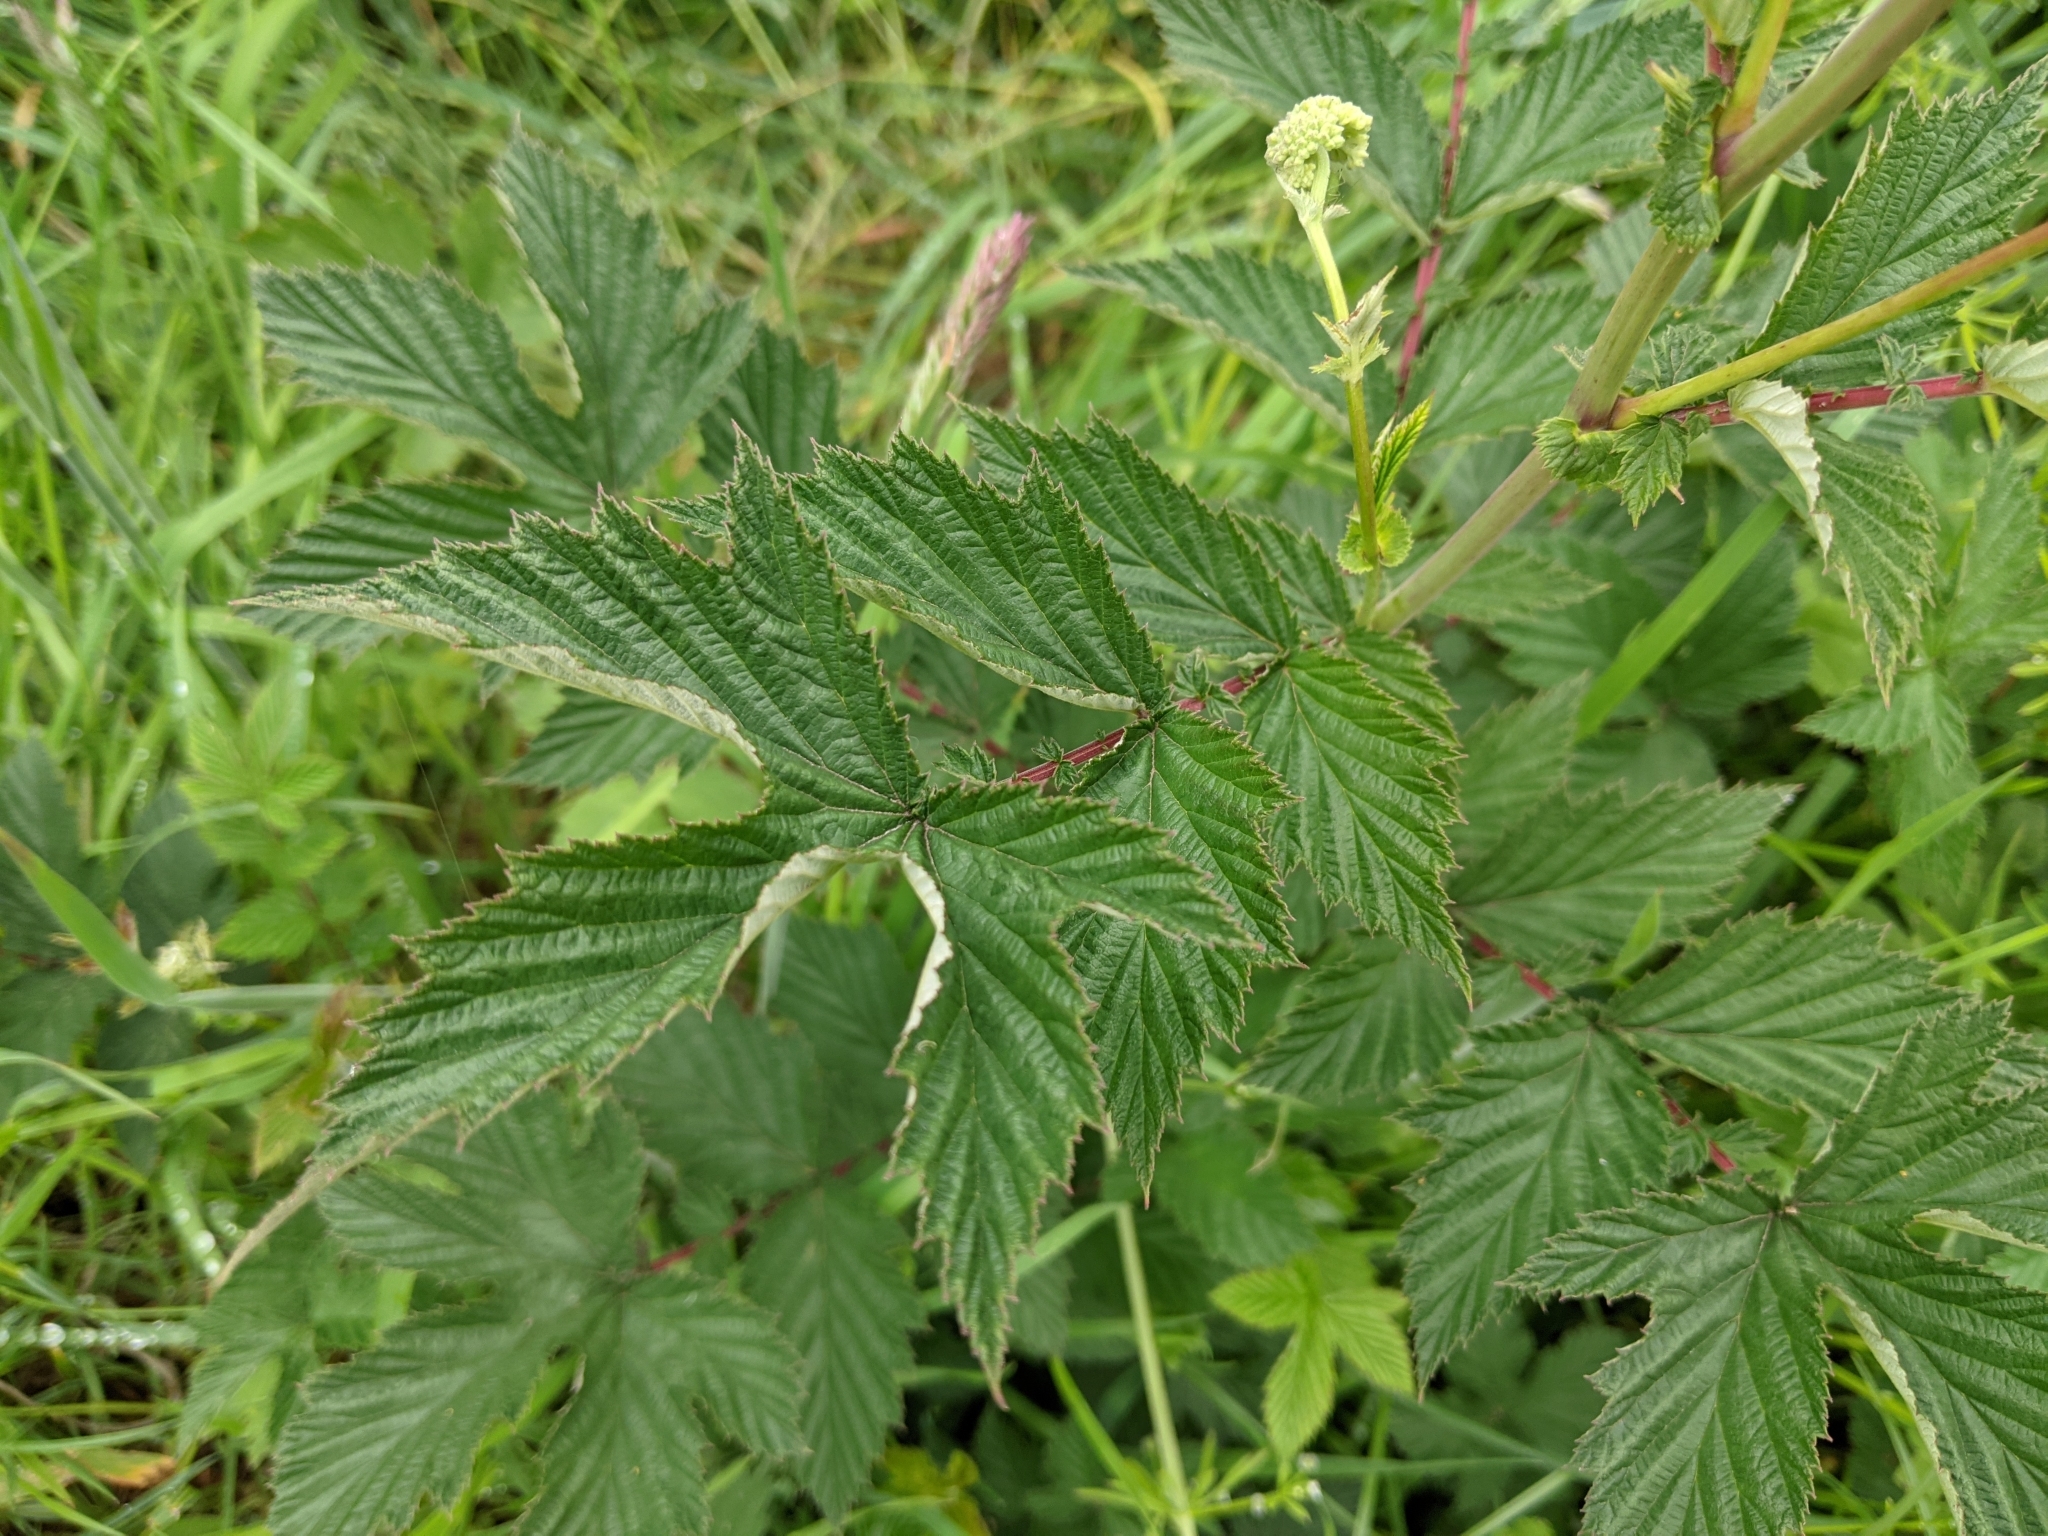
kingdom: Plantae
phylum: Tracheophyta
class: Magnoliopsida
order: Rosales
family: Rosaceae
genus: Filipendula
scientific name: Filipendula ulmaria
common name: Meadowsweet
